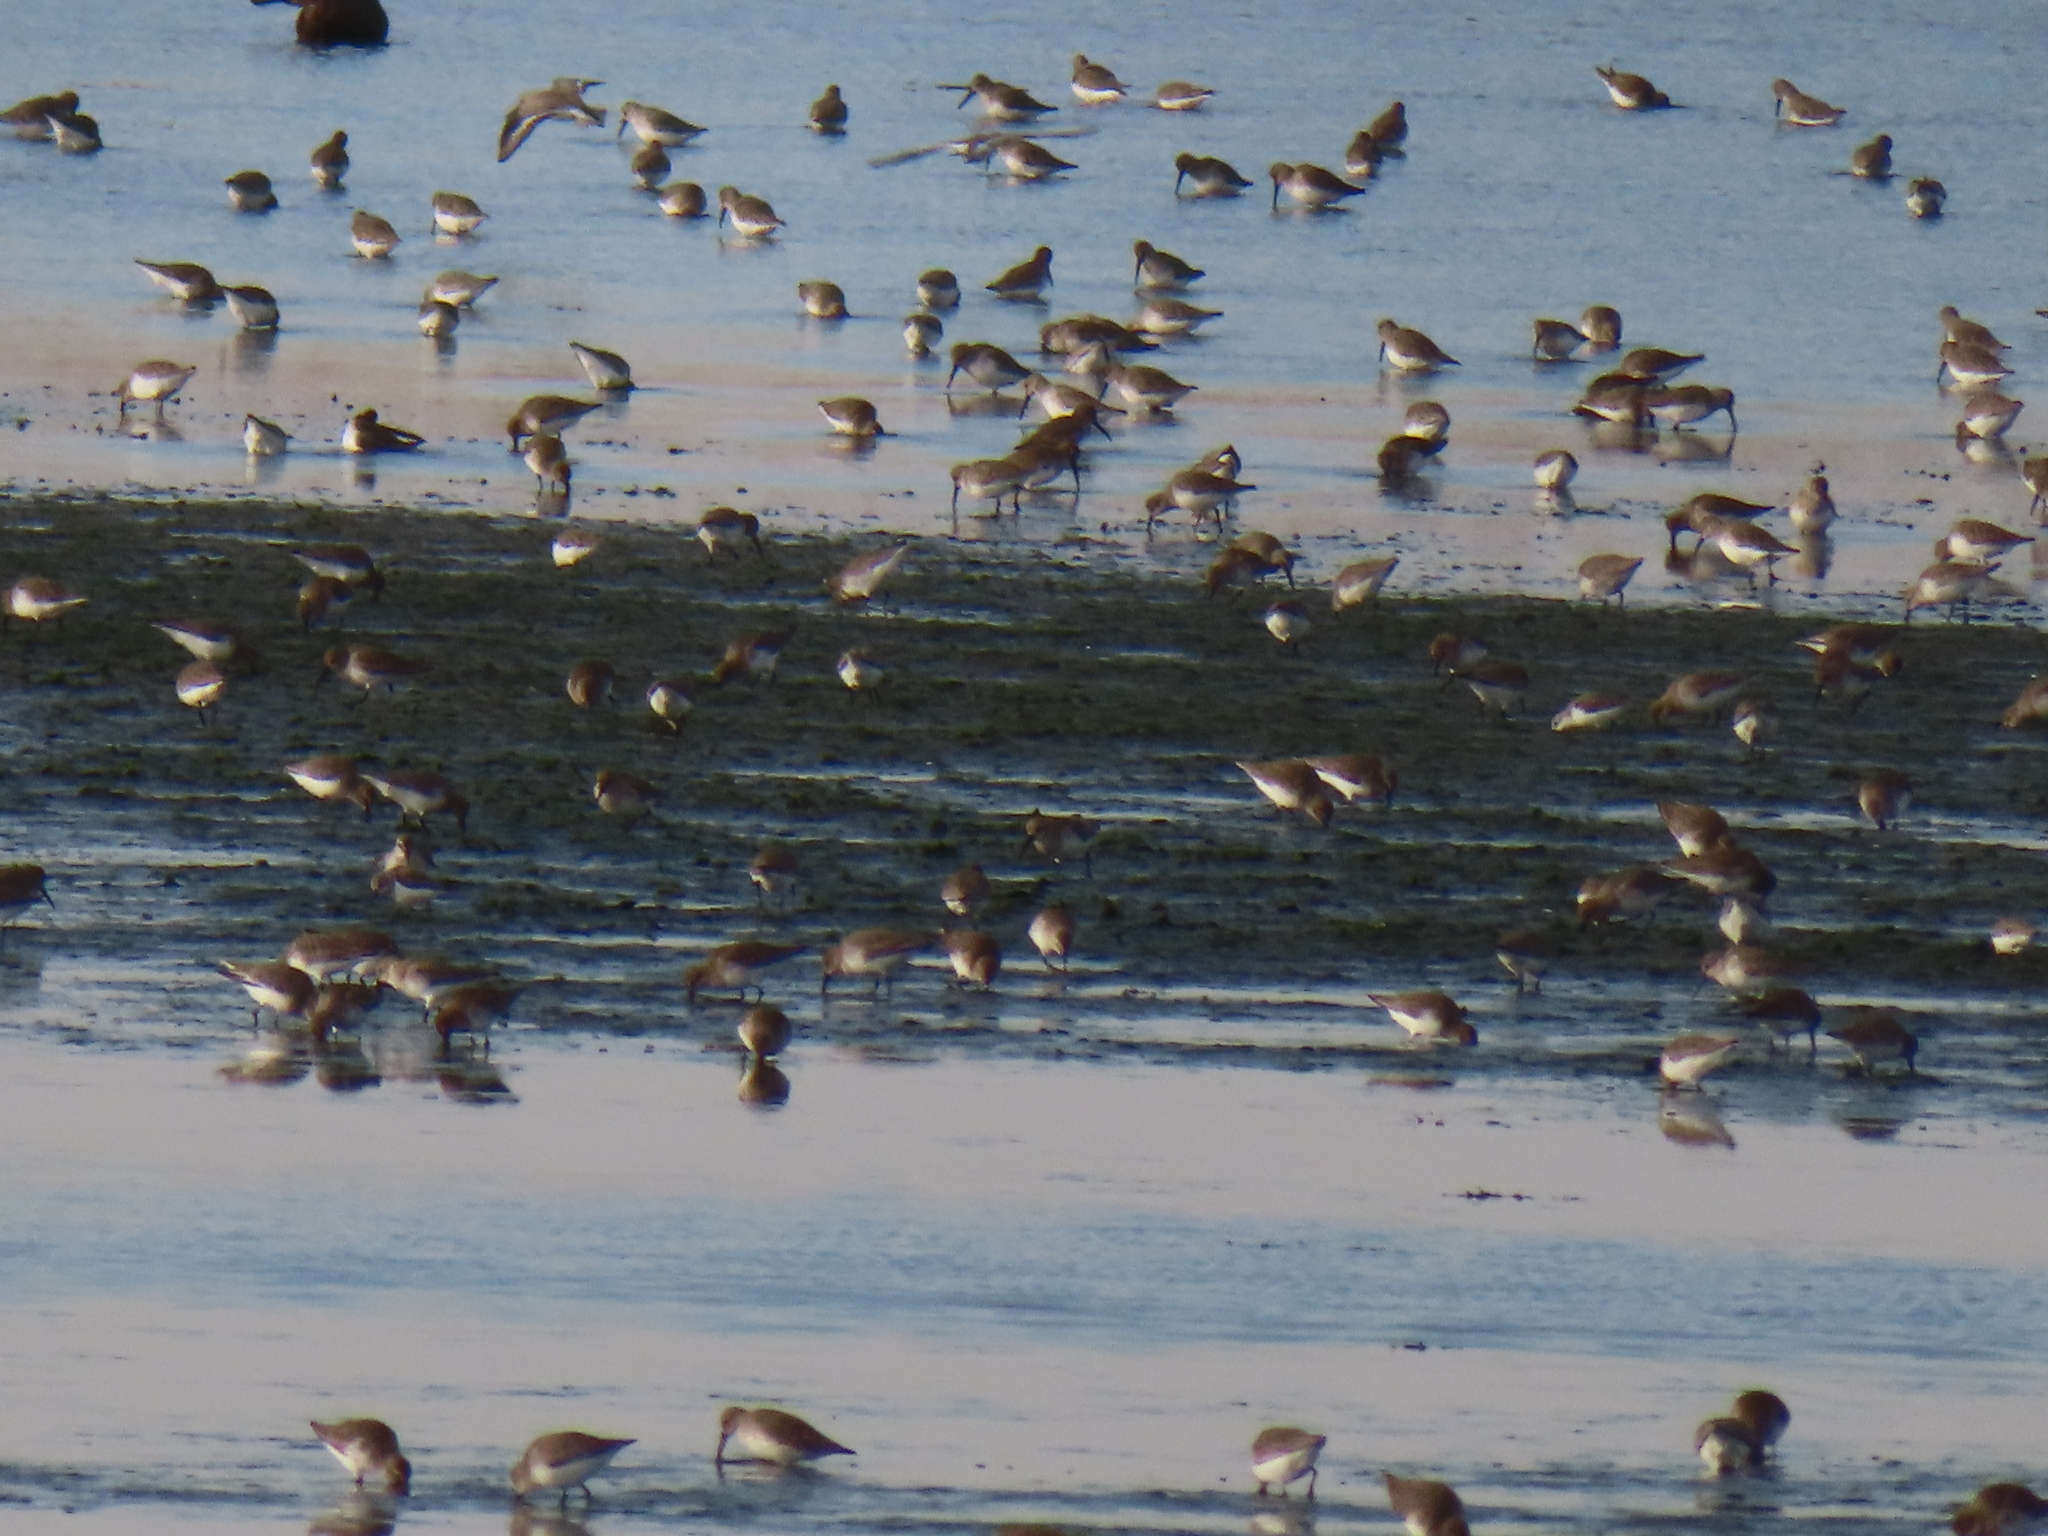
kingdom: Animalia
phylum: Chordata
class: Aves
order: Charadriiformes
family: Scolopacidae
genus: Calidris
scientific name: Calidris alpina
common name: Dunlin
